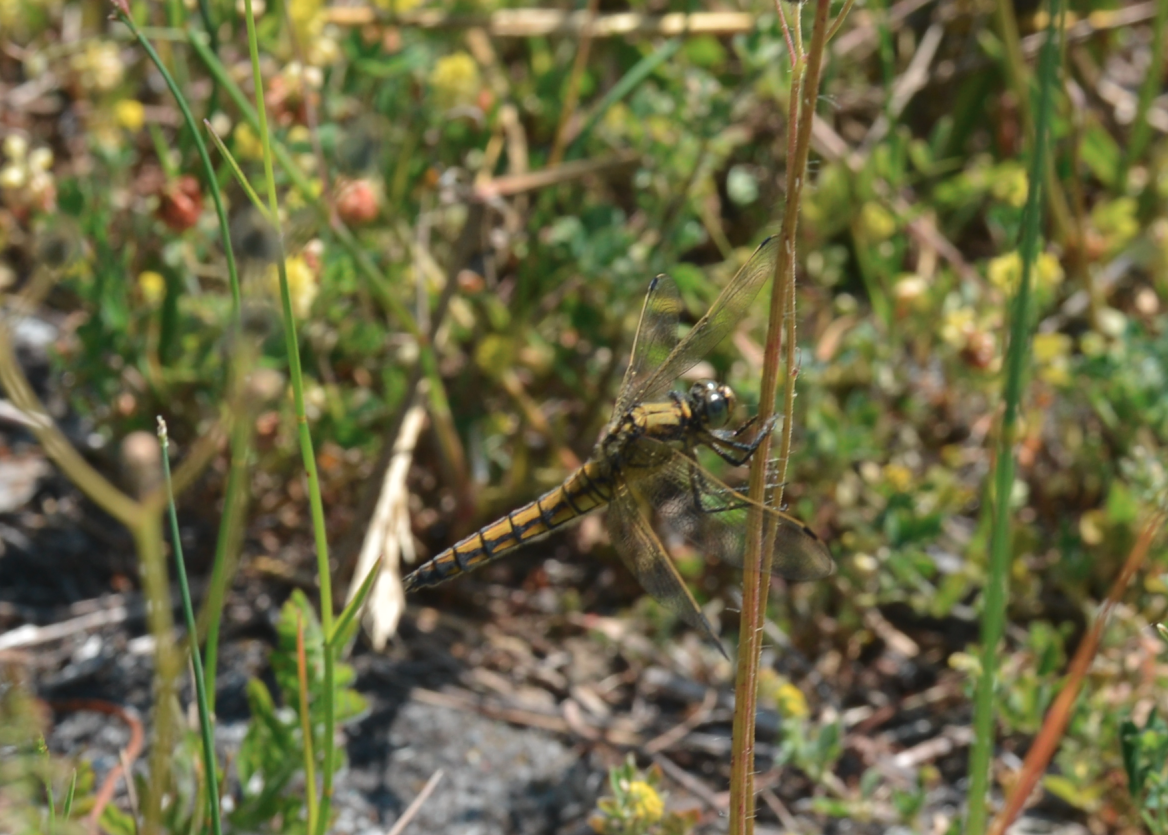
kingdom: Animalia
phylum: Arthropoda
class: Insecta
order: Odonata
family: Libellulidae
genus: Orthetrum
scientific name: Orthetrum cancellatum
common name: Black-tailed skimmer
